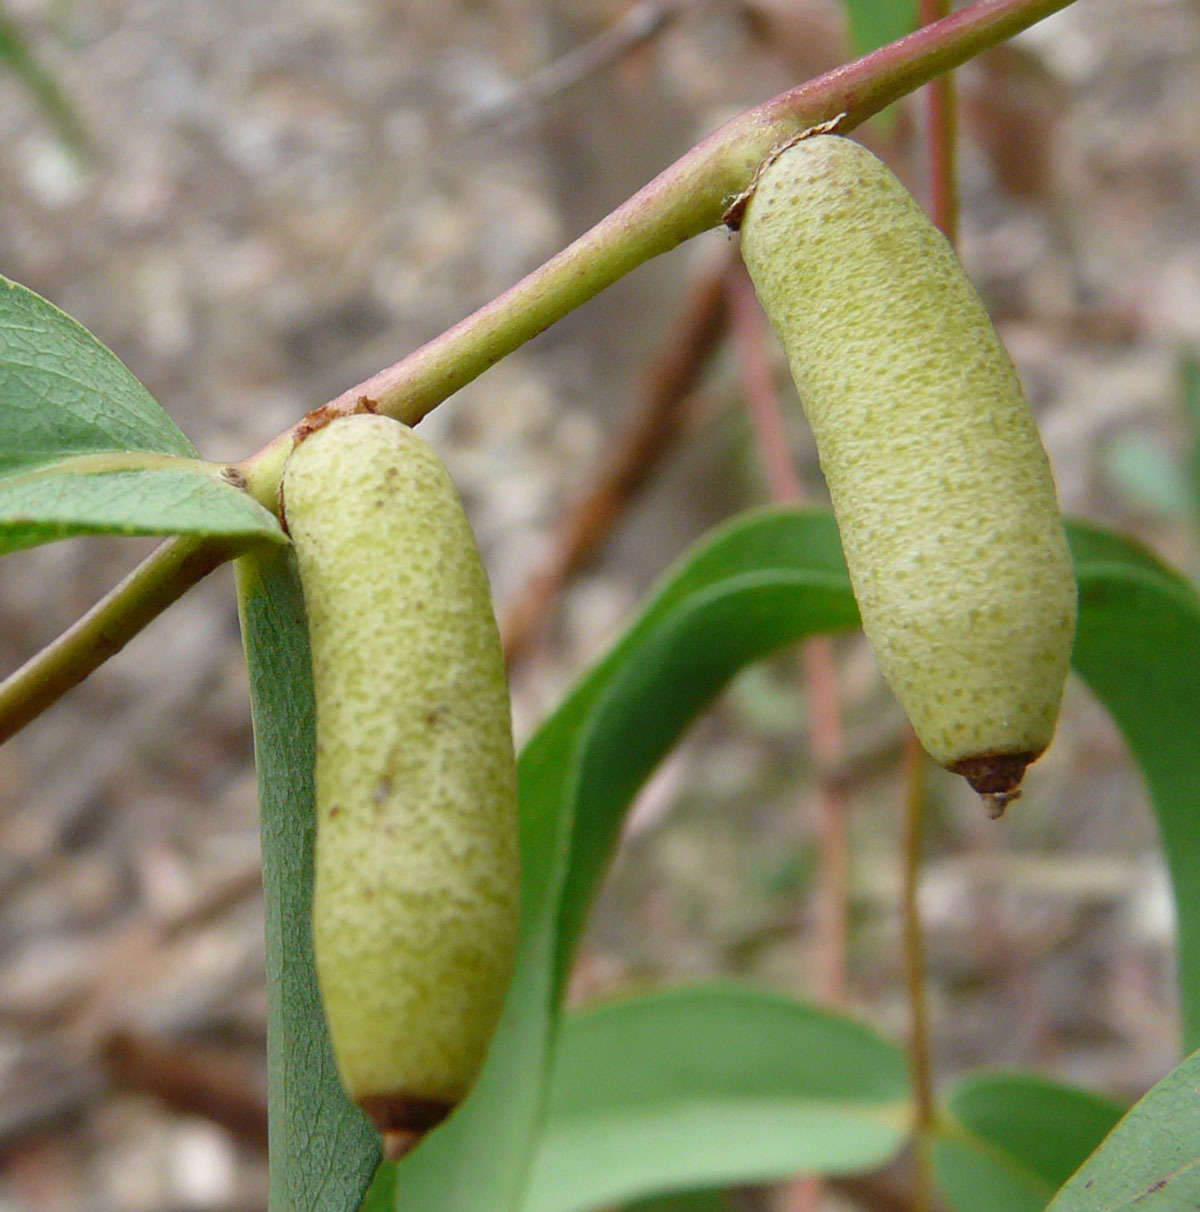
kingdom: Animalia
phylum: Arthropoda
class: Insecta
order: Hemiptera
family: Eriococcidae
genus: Apiomorpha
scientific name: Apiomorpha conica
